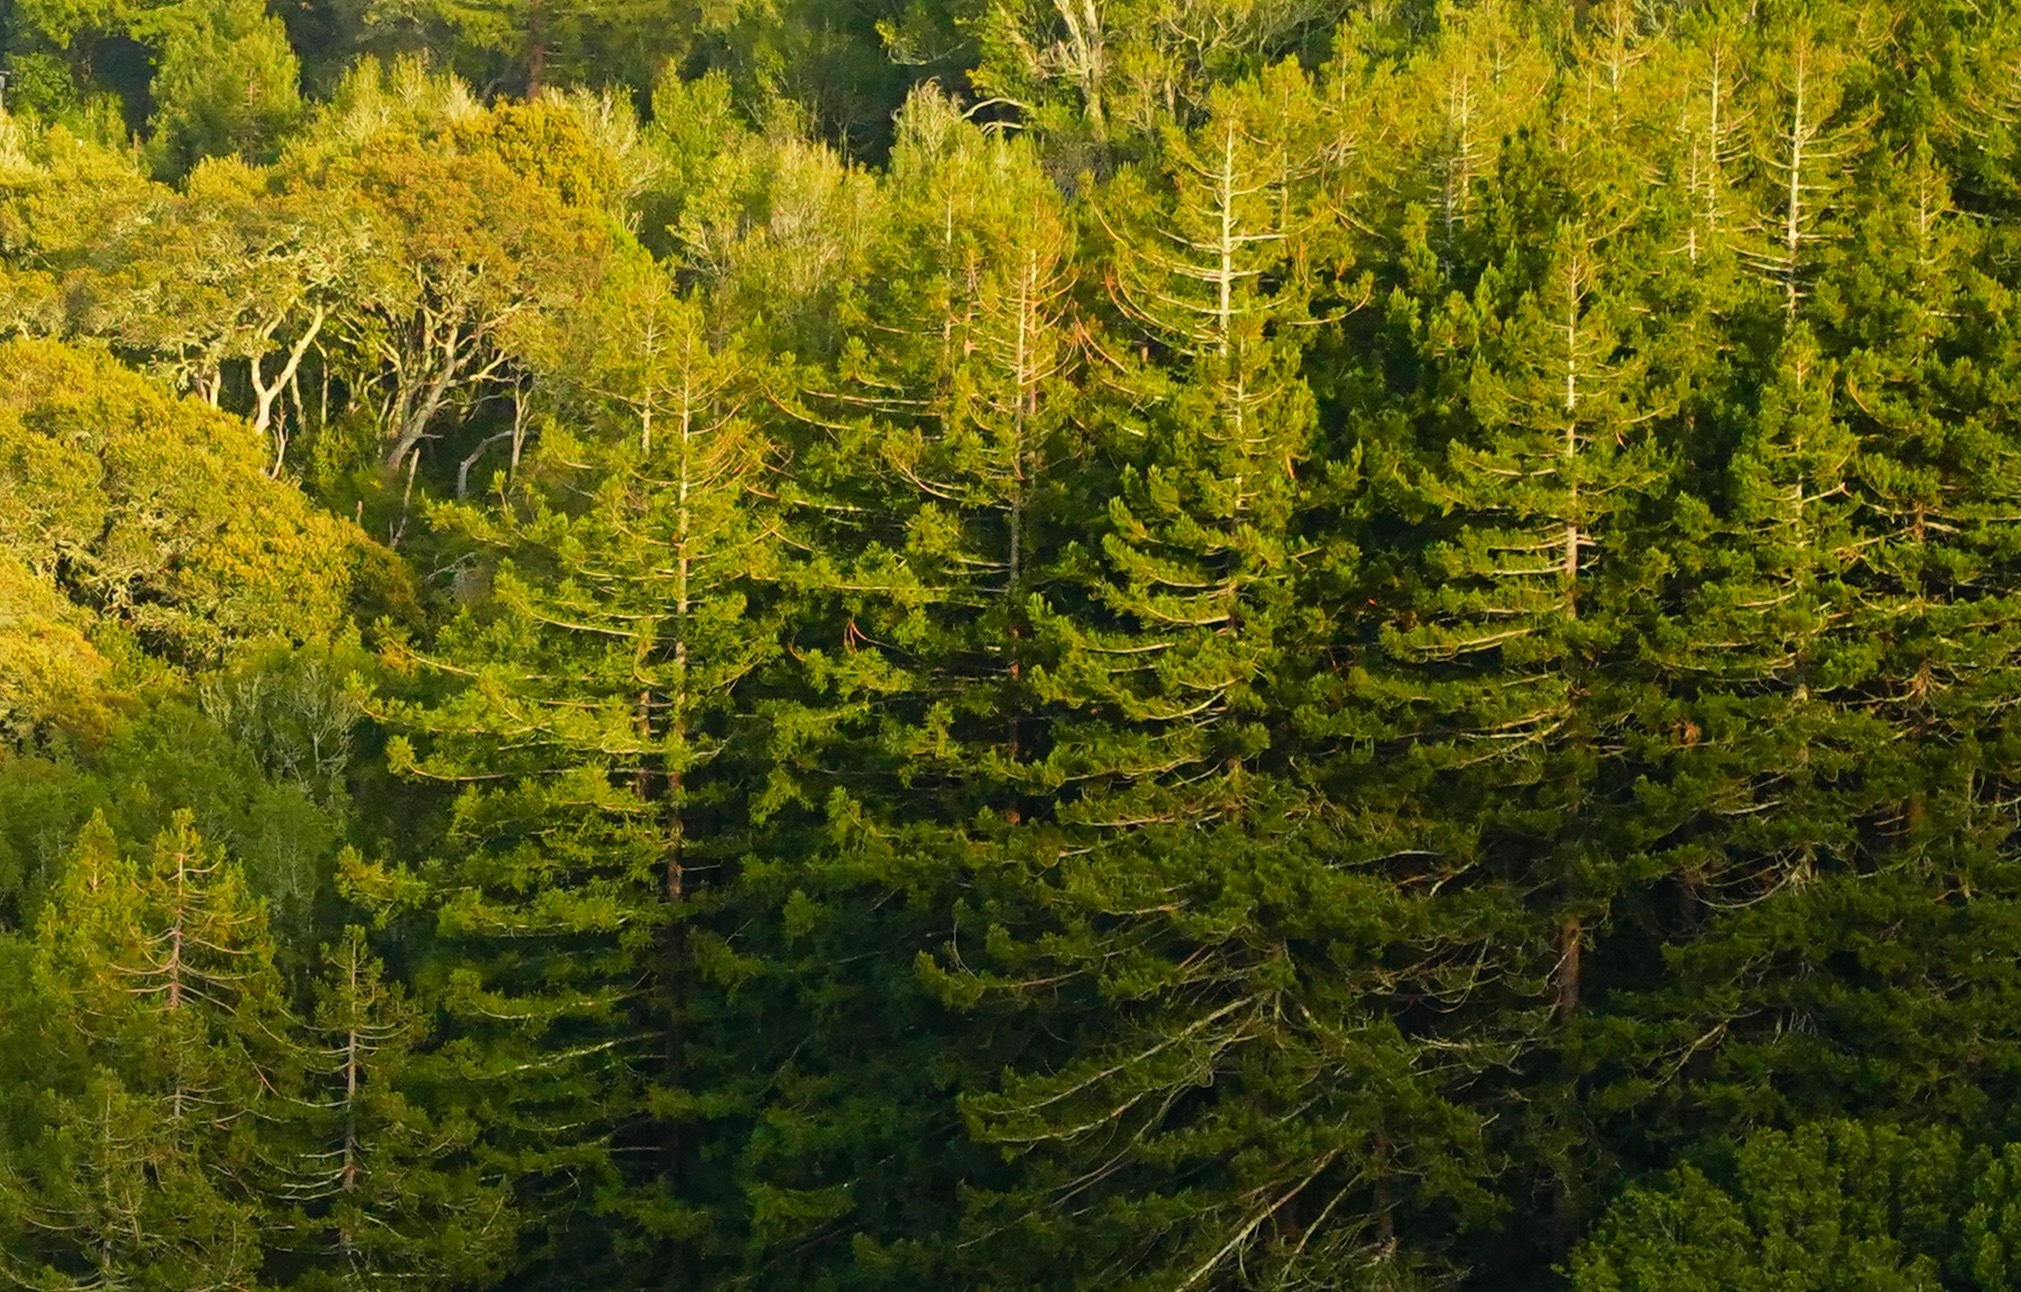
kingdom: Plantae
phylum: Tracheophyta
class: Pinopsida
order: Pinales
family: Cupressaceae
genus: Sequoia
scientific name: Sequoia sempervirens
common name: Coast redwood
